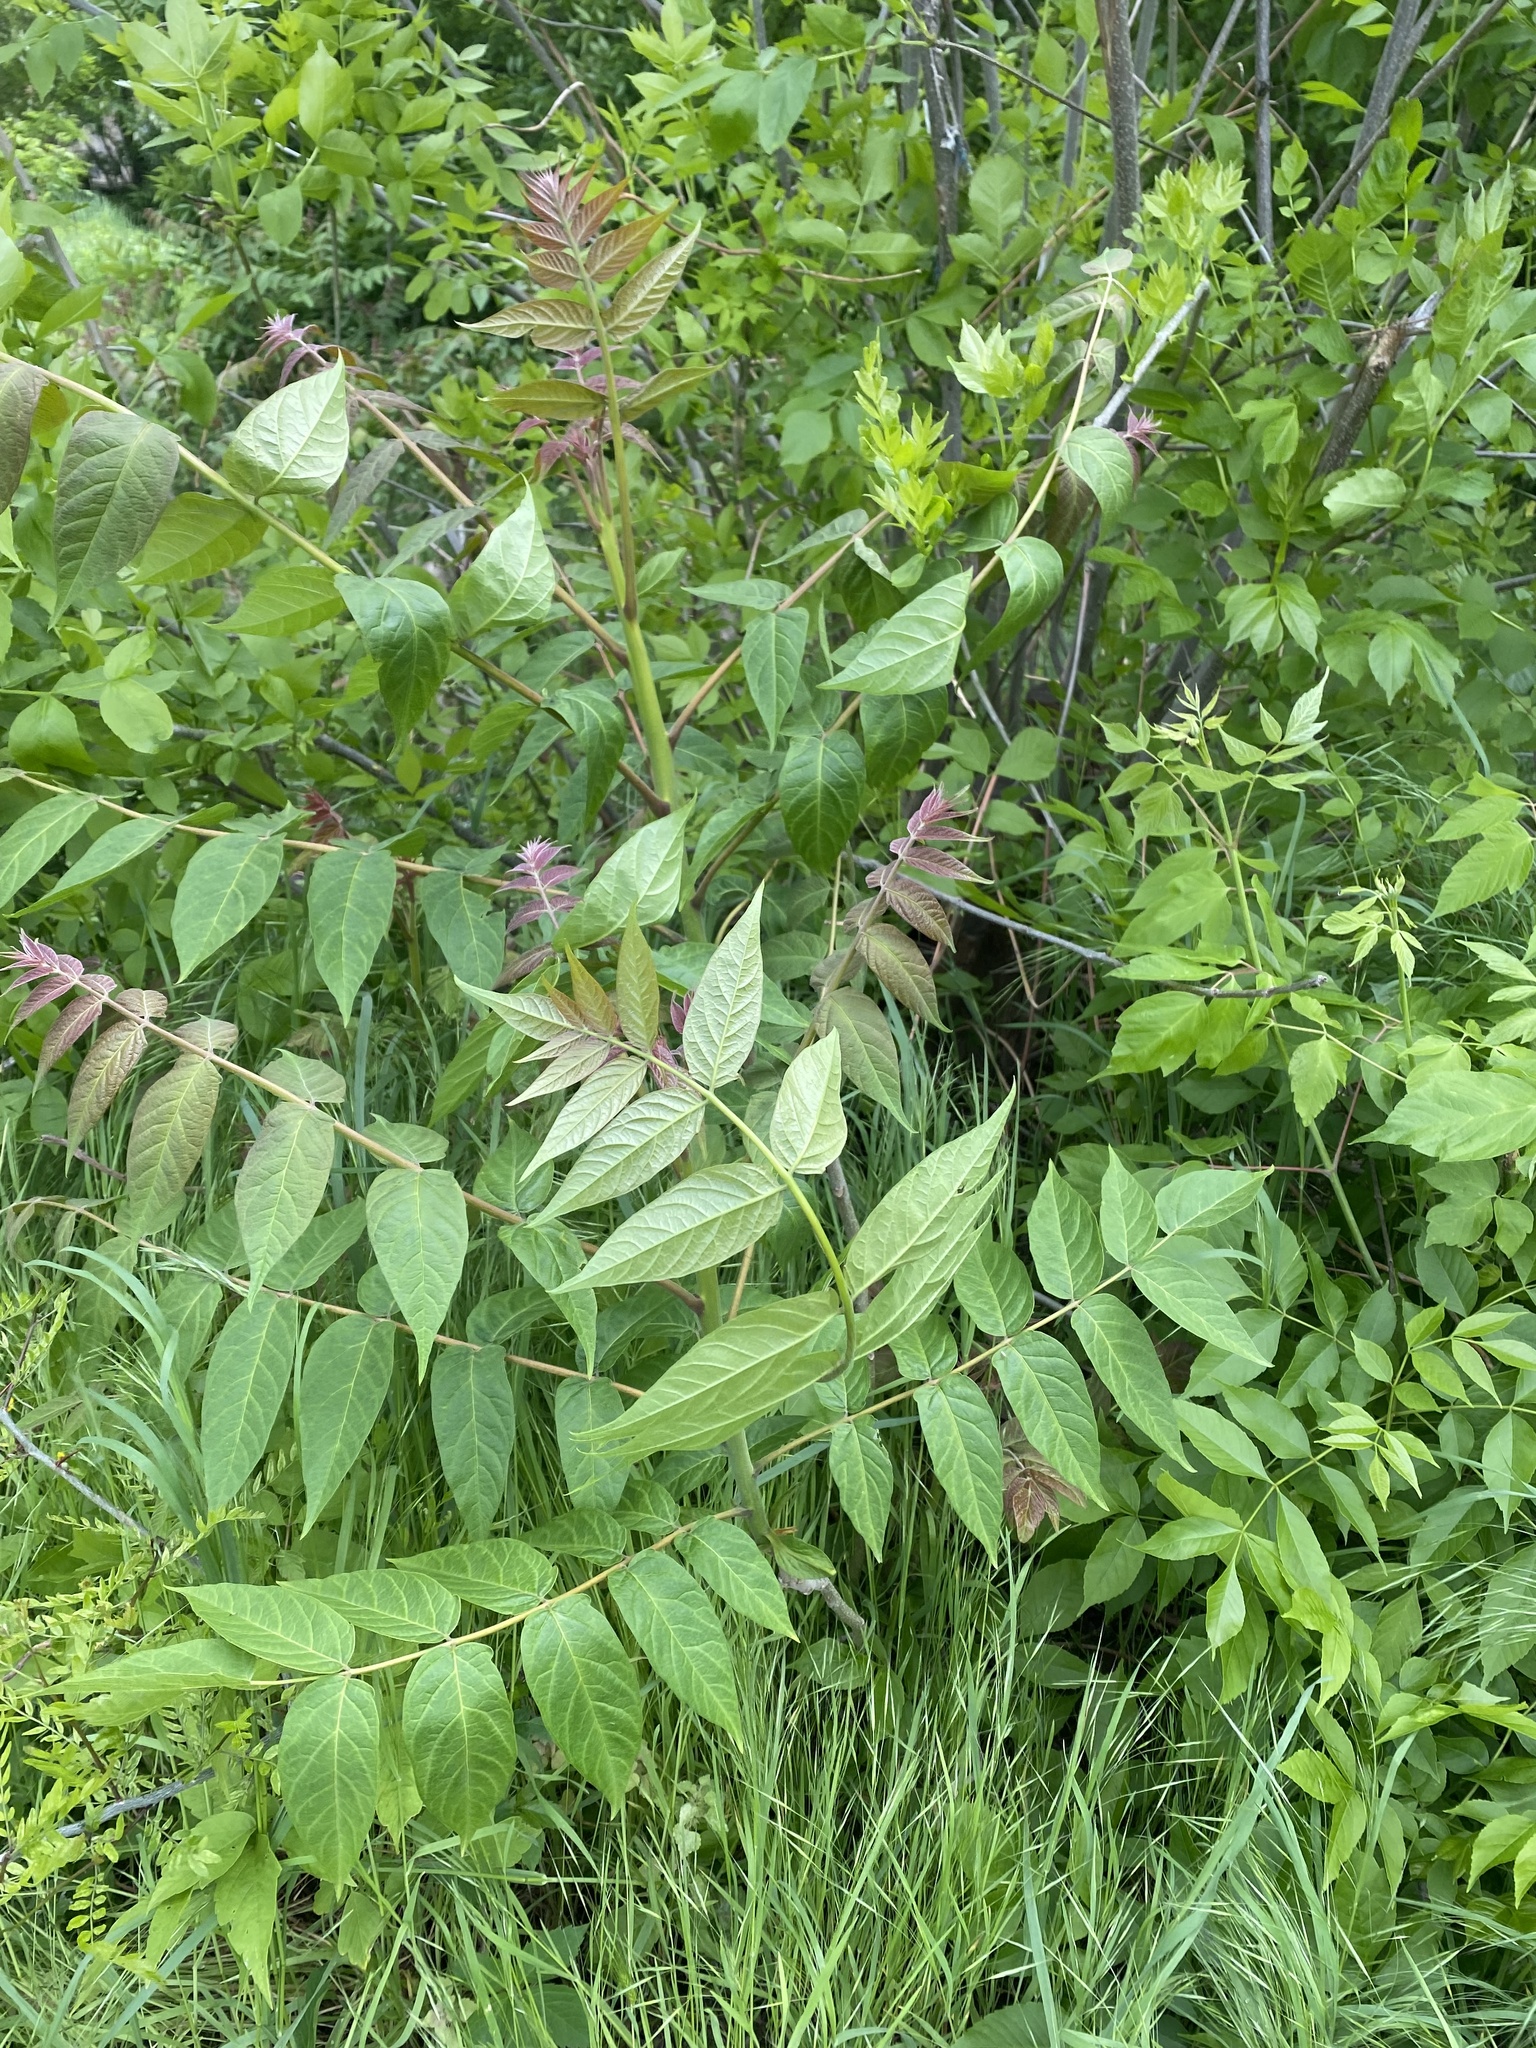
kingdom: Plantae
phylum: Tracheophyta
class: Magnoliopsida
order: Sapindales
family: Simaroubaceae
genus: Ailanthus
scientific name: Ailanthus altissima
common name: Tree-of-heaven
